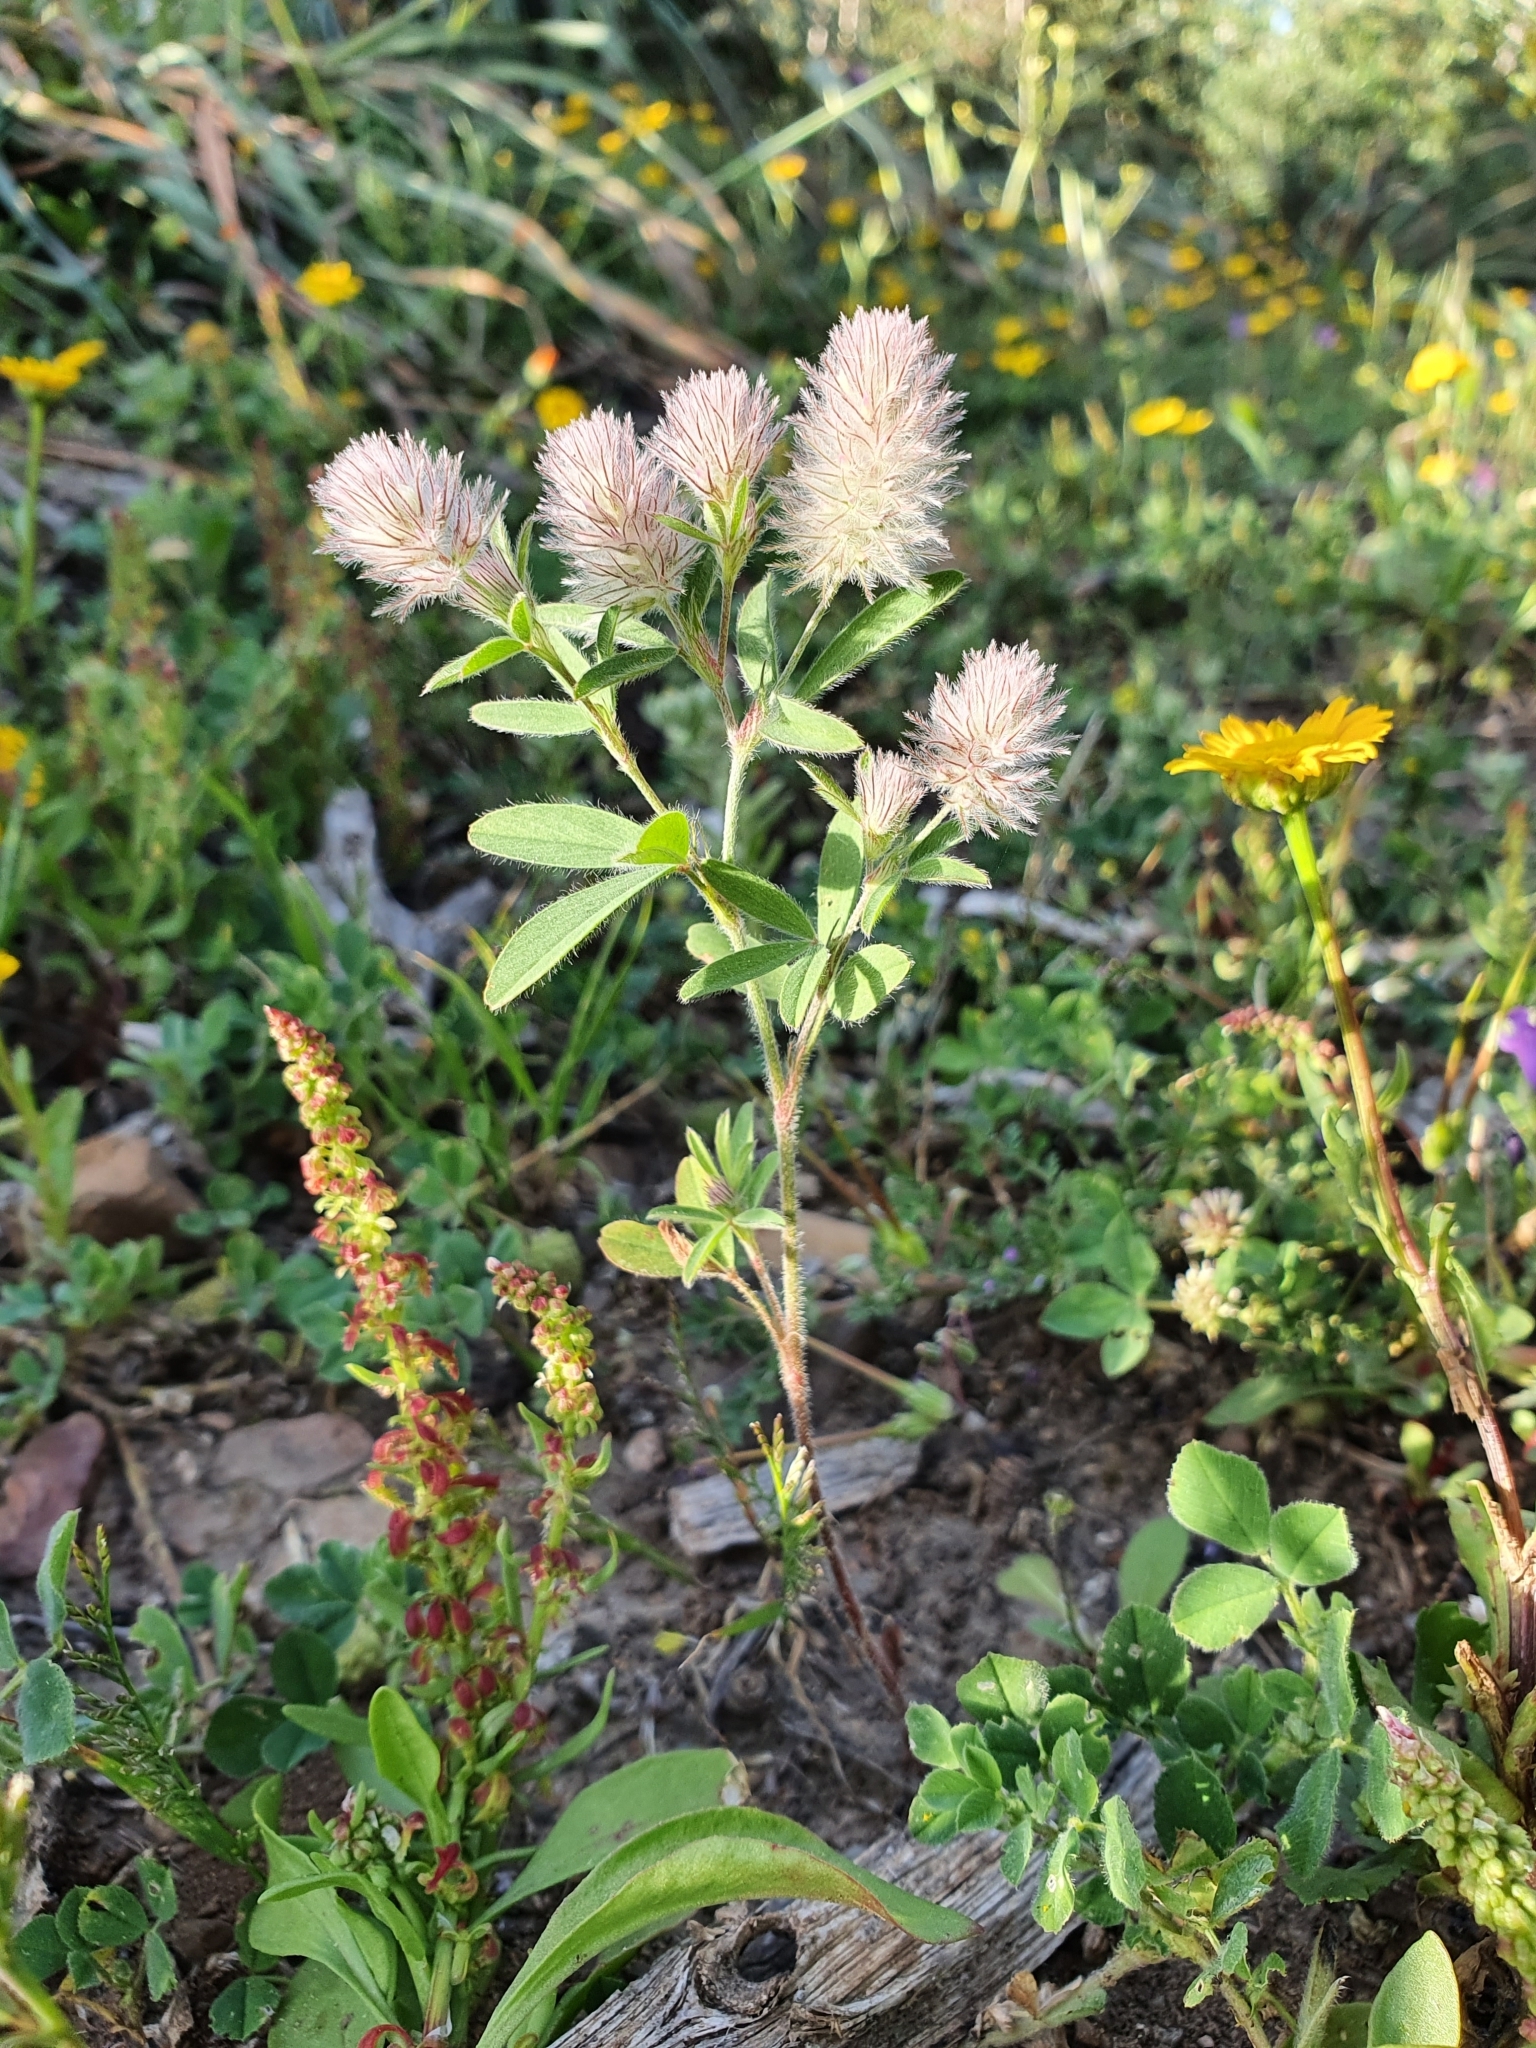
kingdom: Plantae
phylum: Tracheophyta
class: Magnoliopsida
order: Fabales
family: Fabaceae
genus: Trifolium
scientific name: Trifolium arvense
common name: Hare's-foot clover
